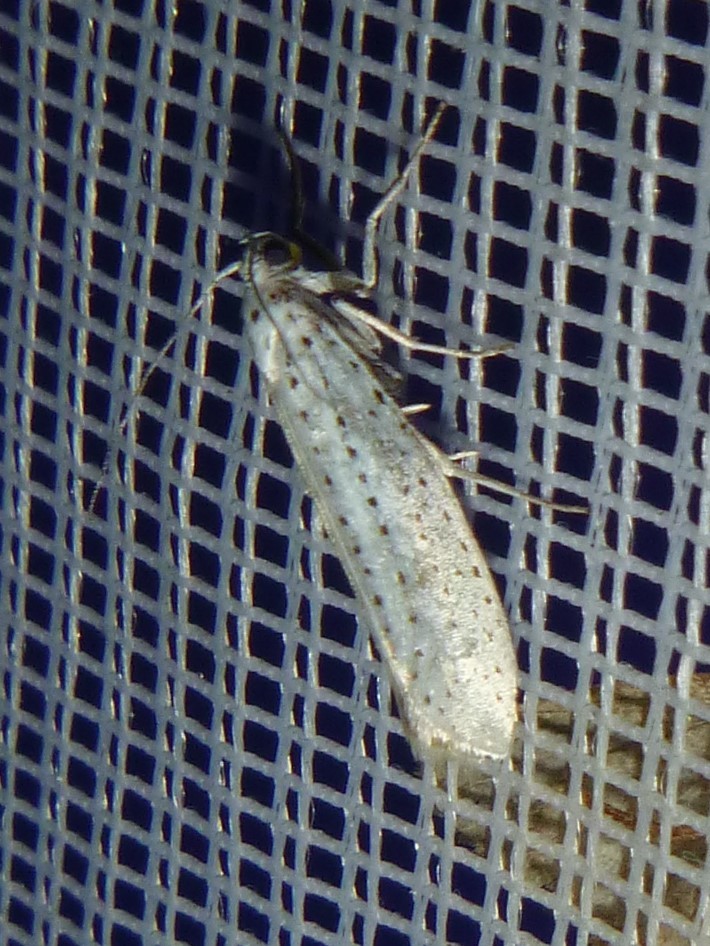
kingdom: Animalia
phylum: Arthropoda
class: Insecta
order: Lepidoptera
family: Yponomeutidae
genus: Yponomeuta
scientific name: Yponomeuta evonymella
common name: Bird-cherry ermine
